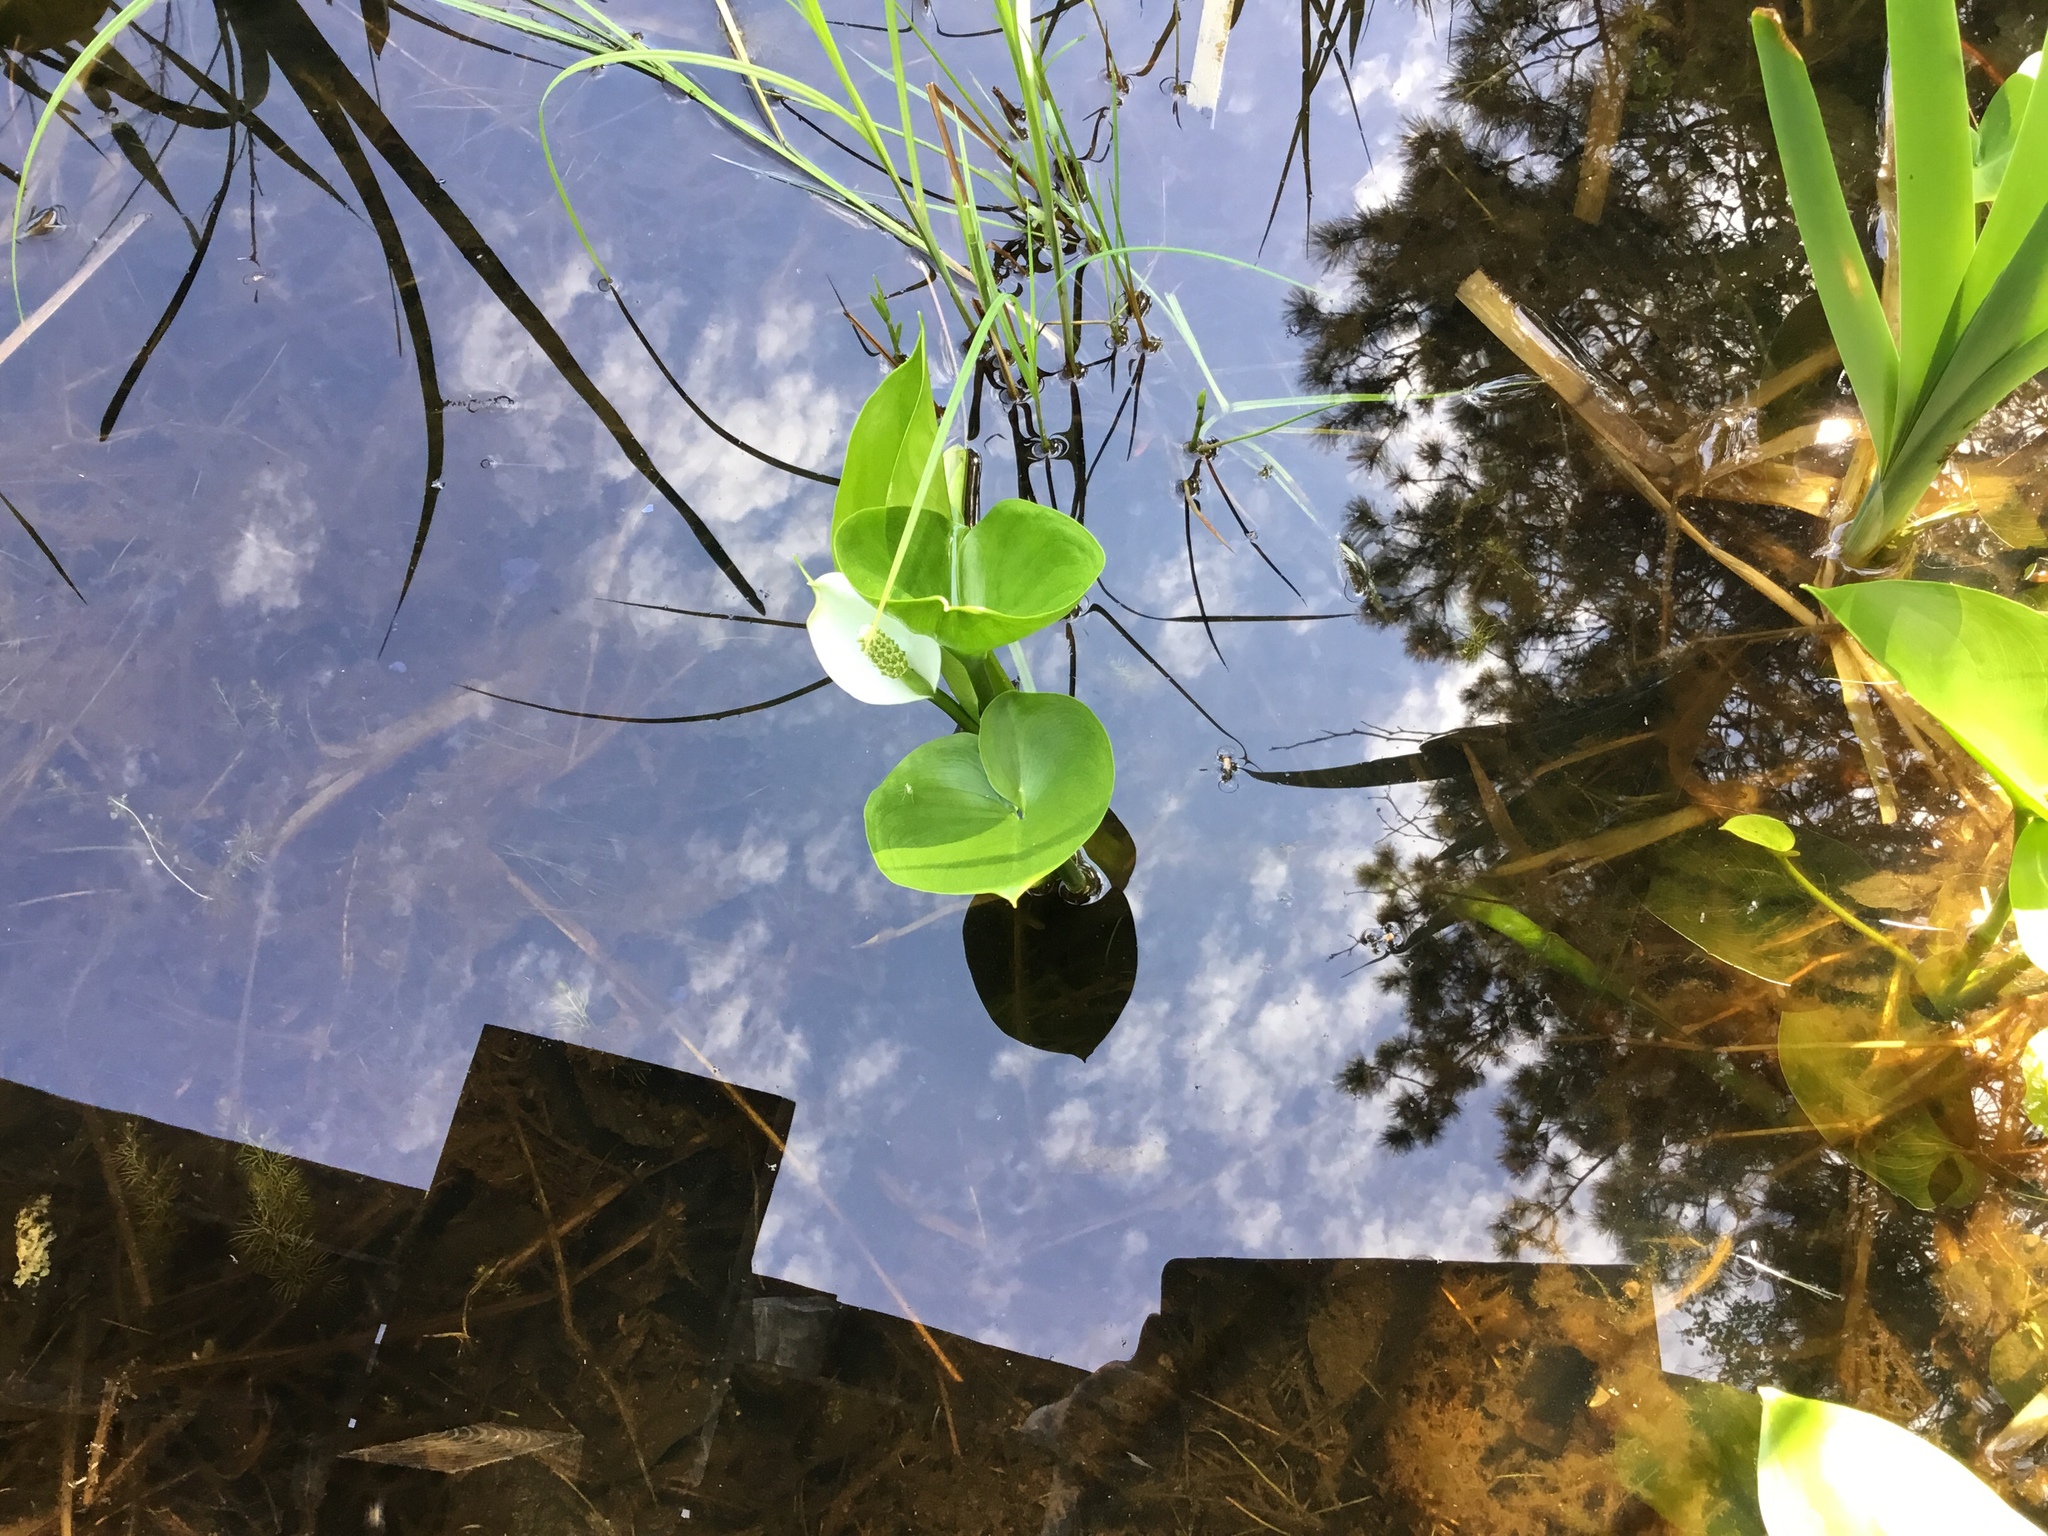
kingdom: Plantae
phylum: Tracheophyta
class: Liliopsida
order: Alismatales
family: Araceae
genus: Calla
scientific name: Calla palustris
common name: Bog arum
